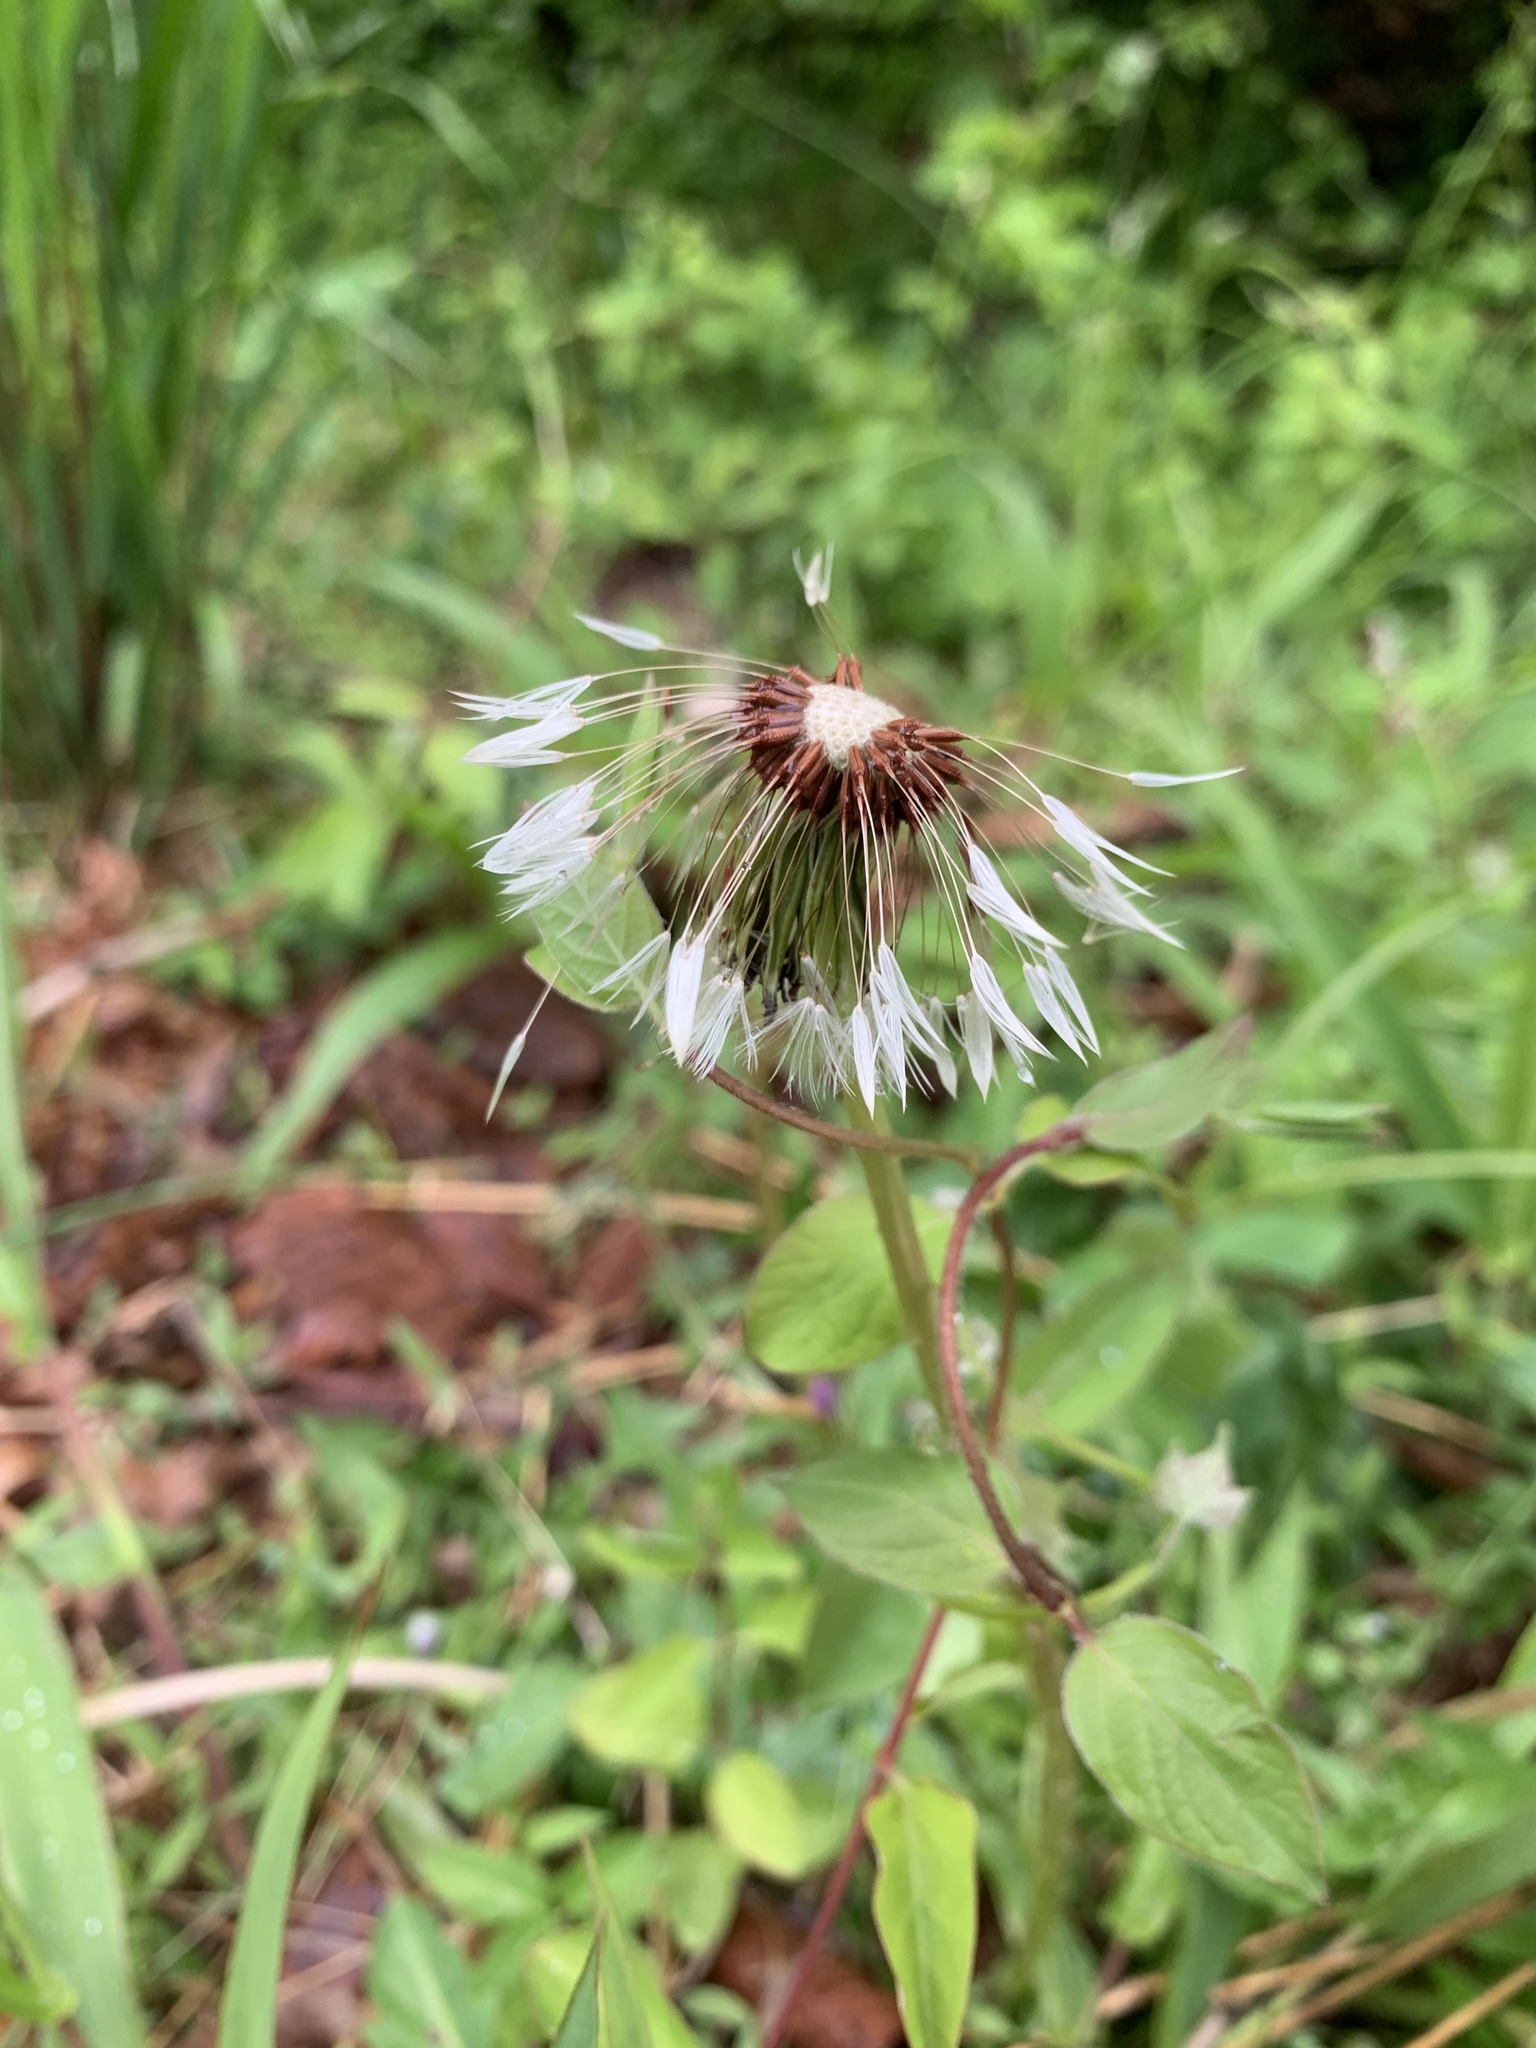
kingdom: Plantae
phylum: Tracheophyta
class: Magnoliopsida
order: Asterales
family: Asteraceae
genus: Taraxacum
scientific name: Taraxacum erythrospermum
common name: Rock dandelion
